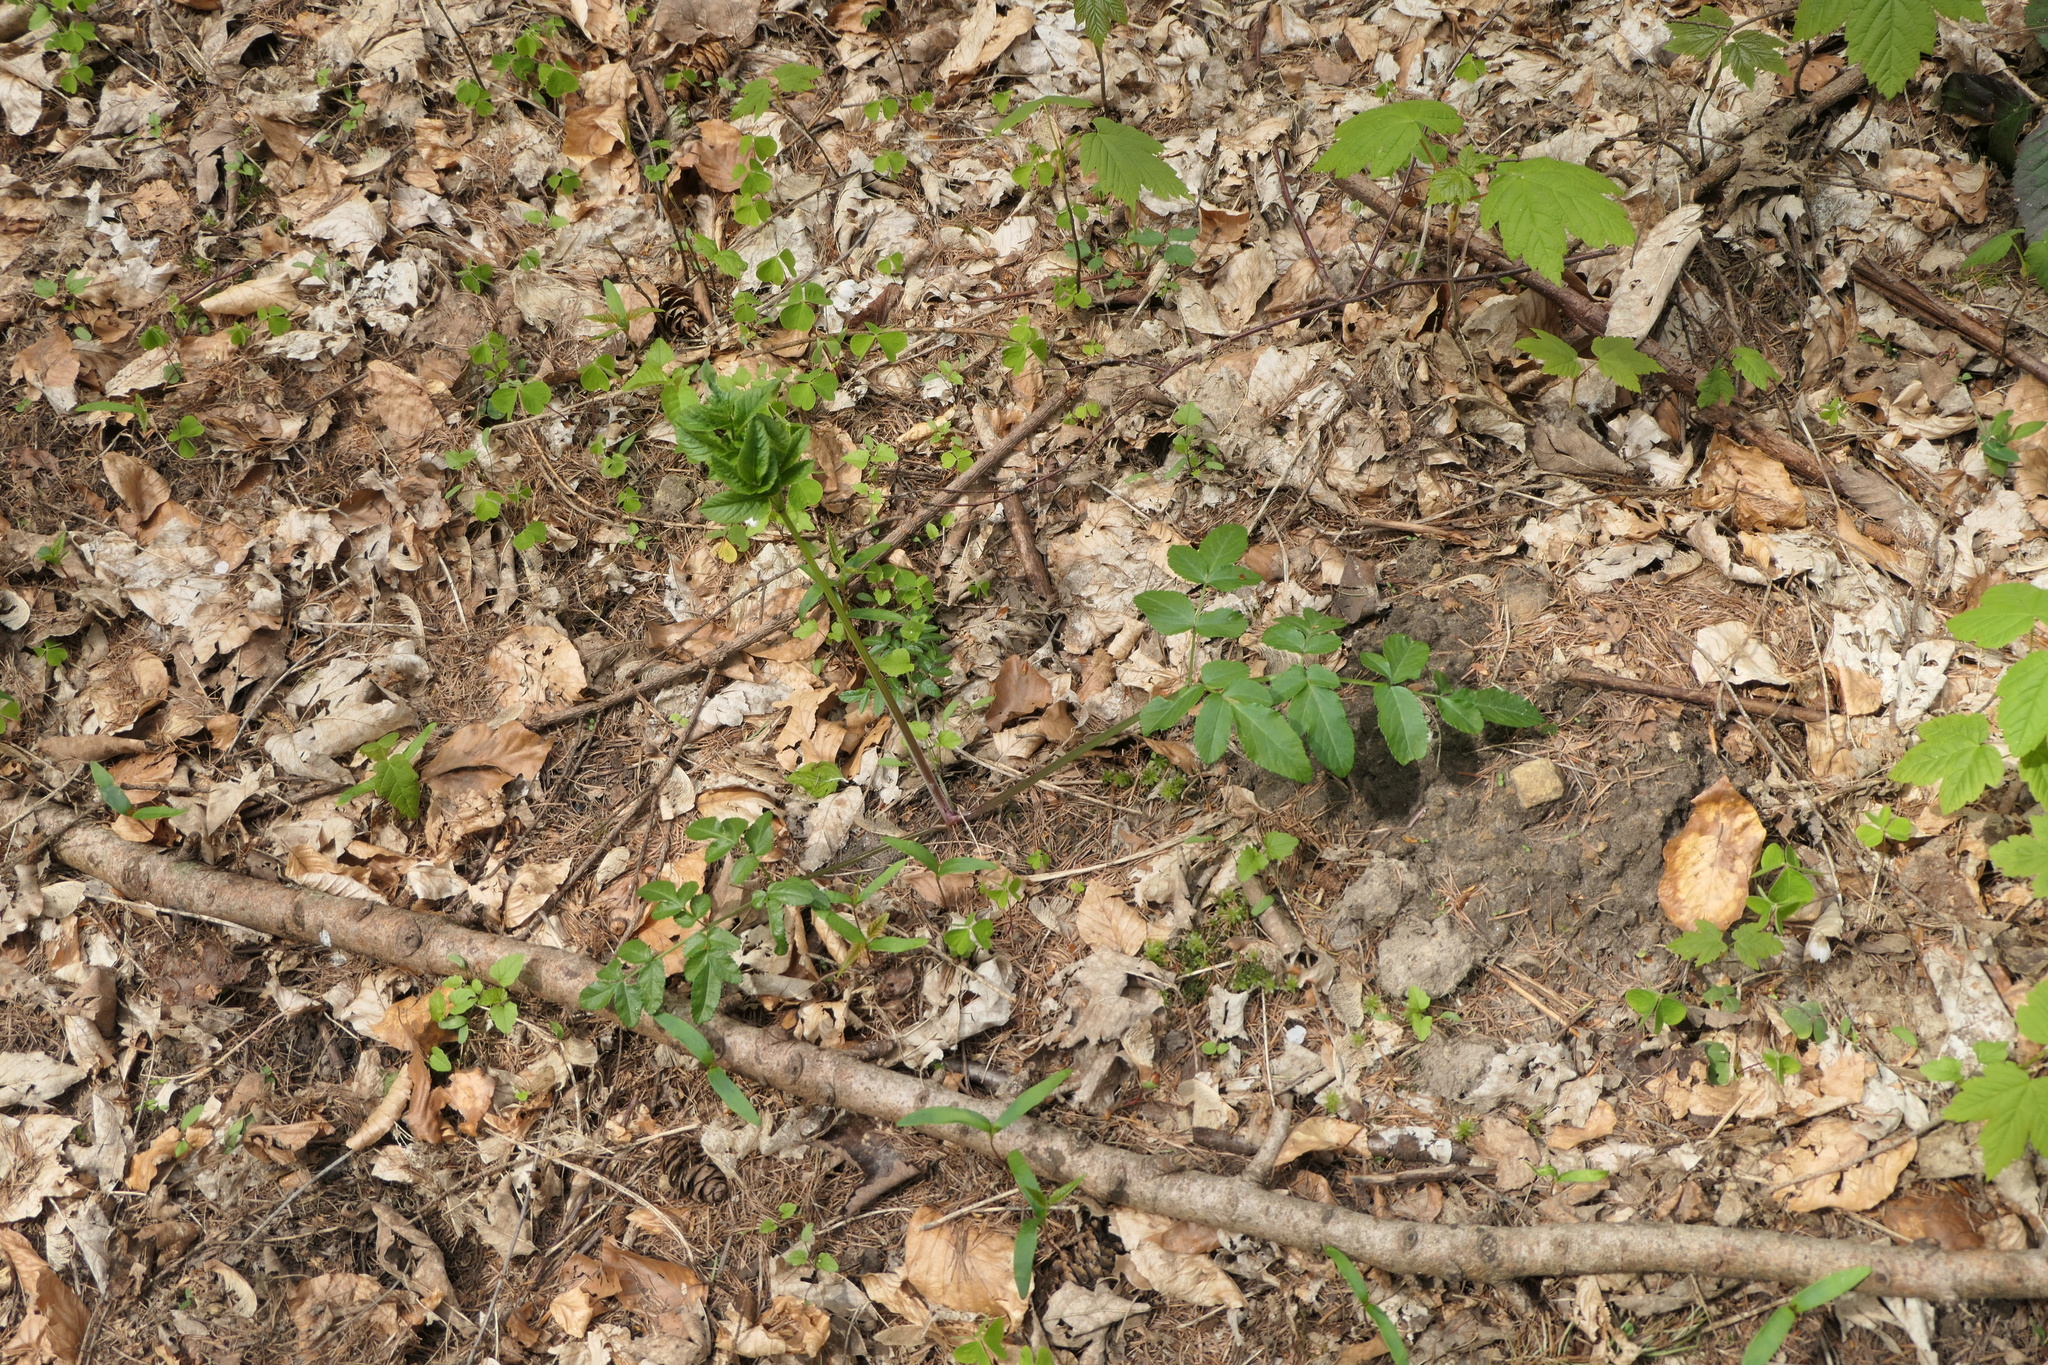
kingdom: Plantae
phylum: Tracheophyta
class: Magnoliopsida
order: Apiales
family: Apiaceae
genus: Angelica
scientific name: Angelica sylvestris
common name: Wild angelica
